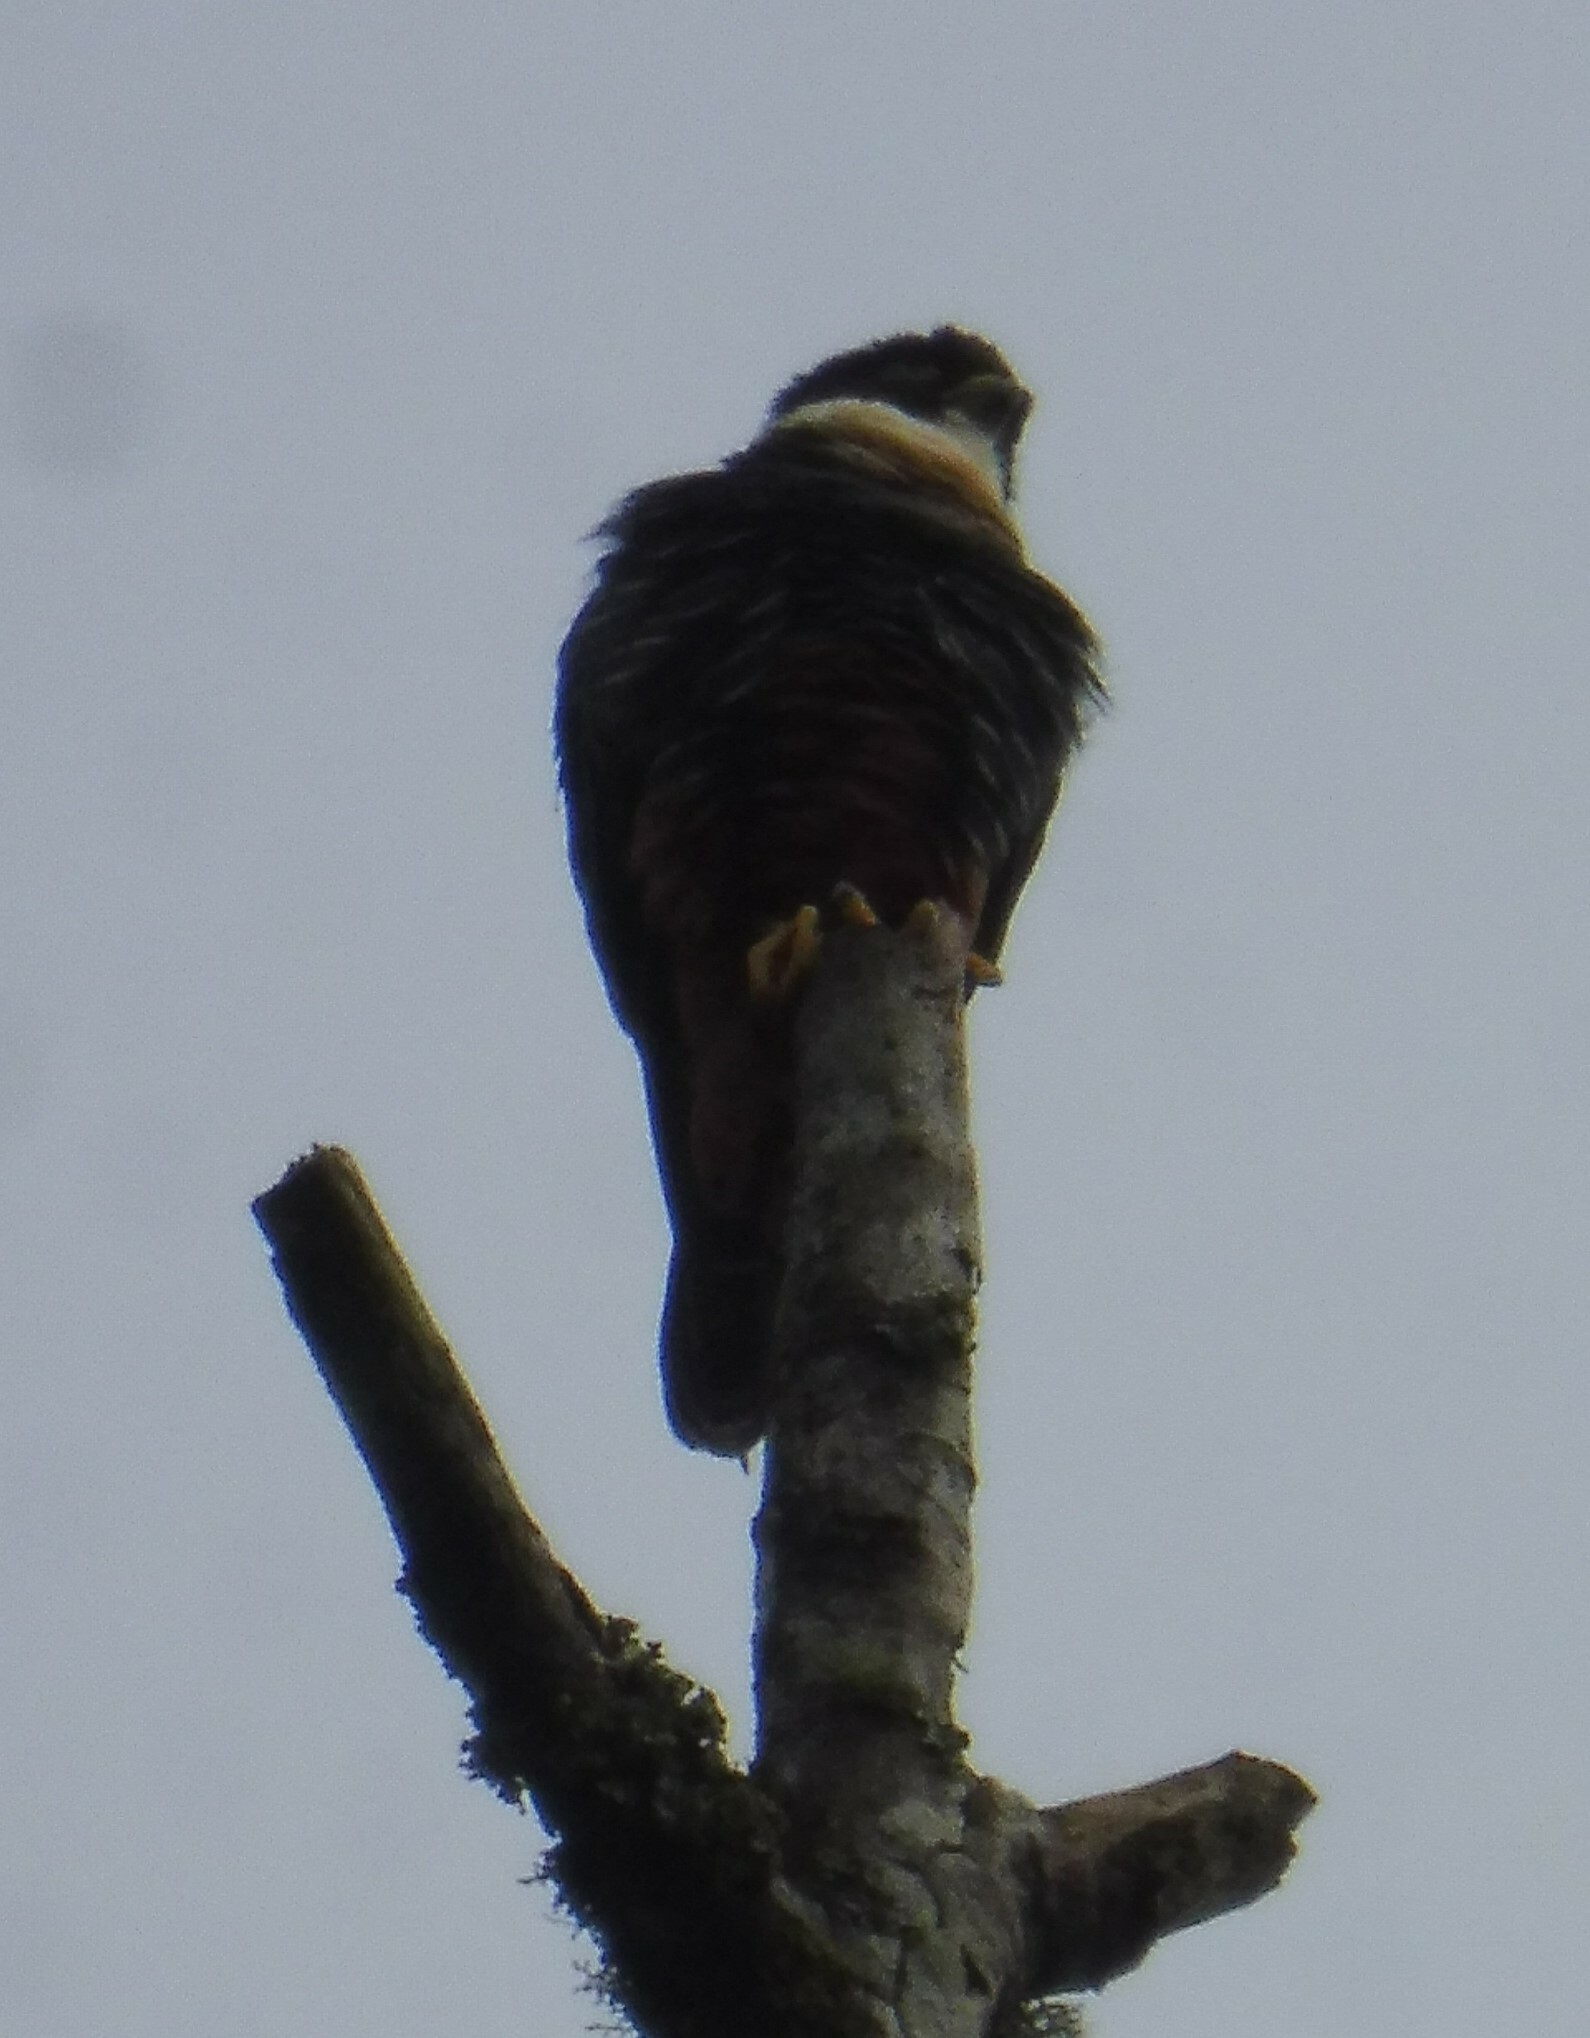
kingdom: Animalia
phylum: Chordata
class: Aves
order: Falconiformes
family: Falconidae
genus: Falco
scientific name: Falco rufigularis
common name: Bat falcon
